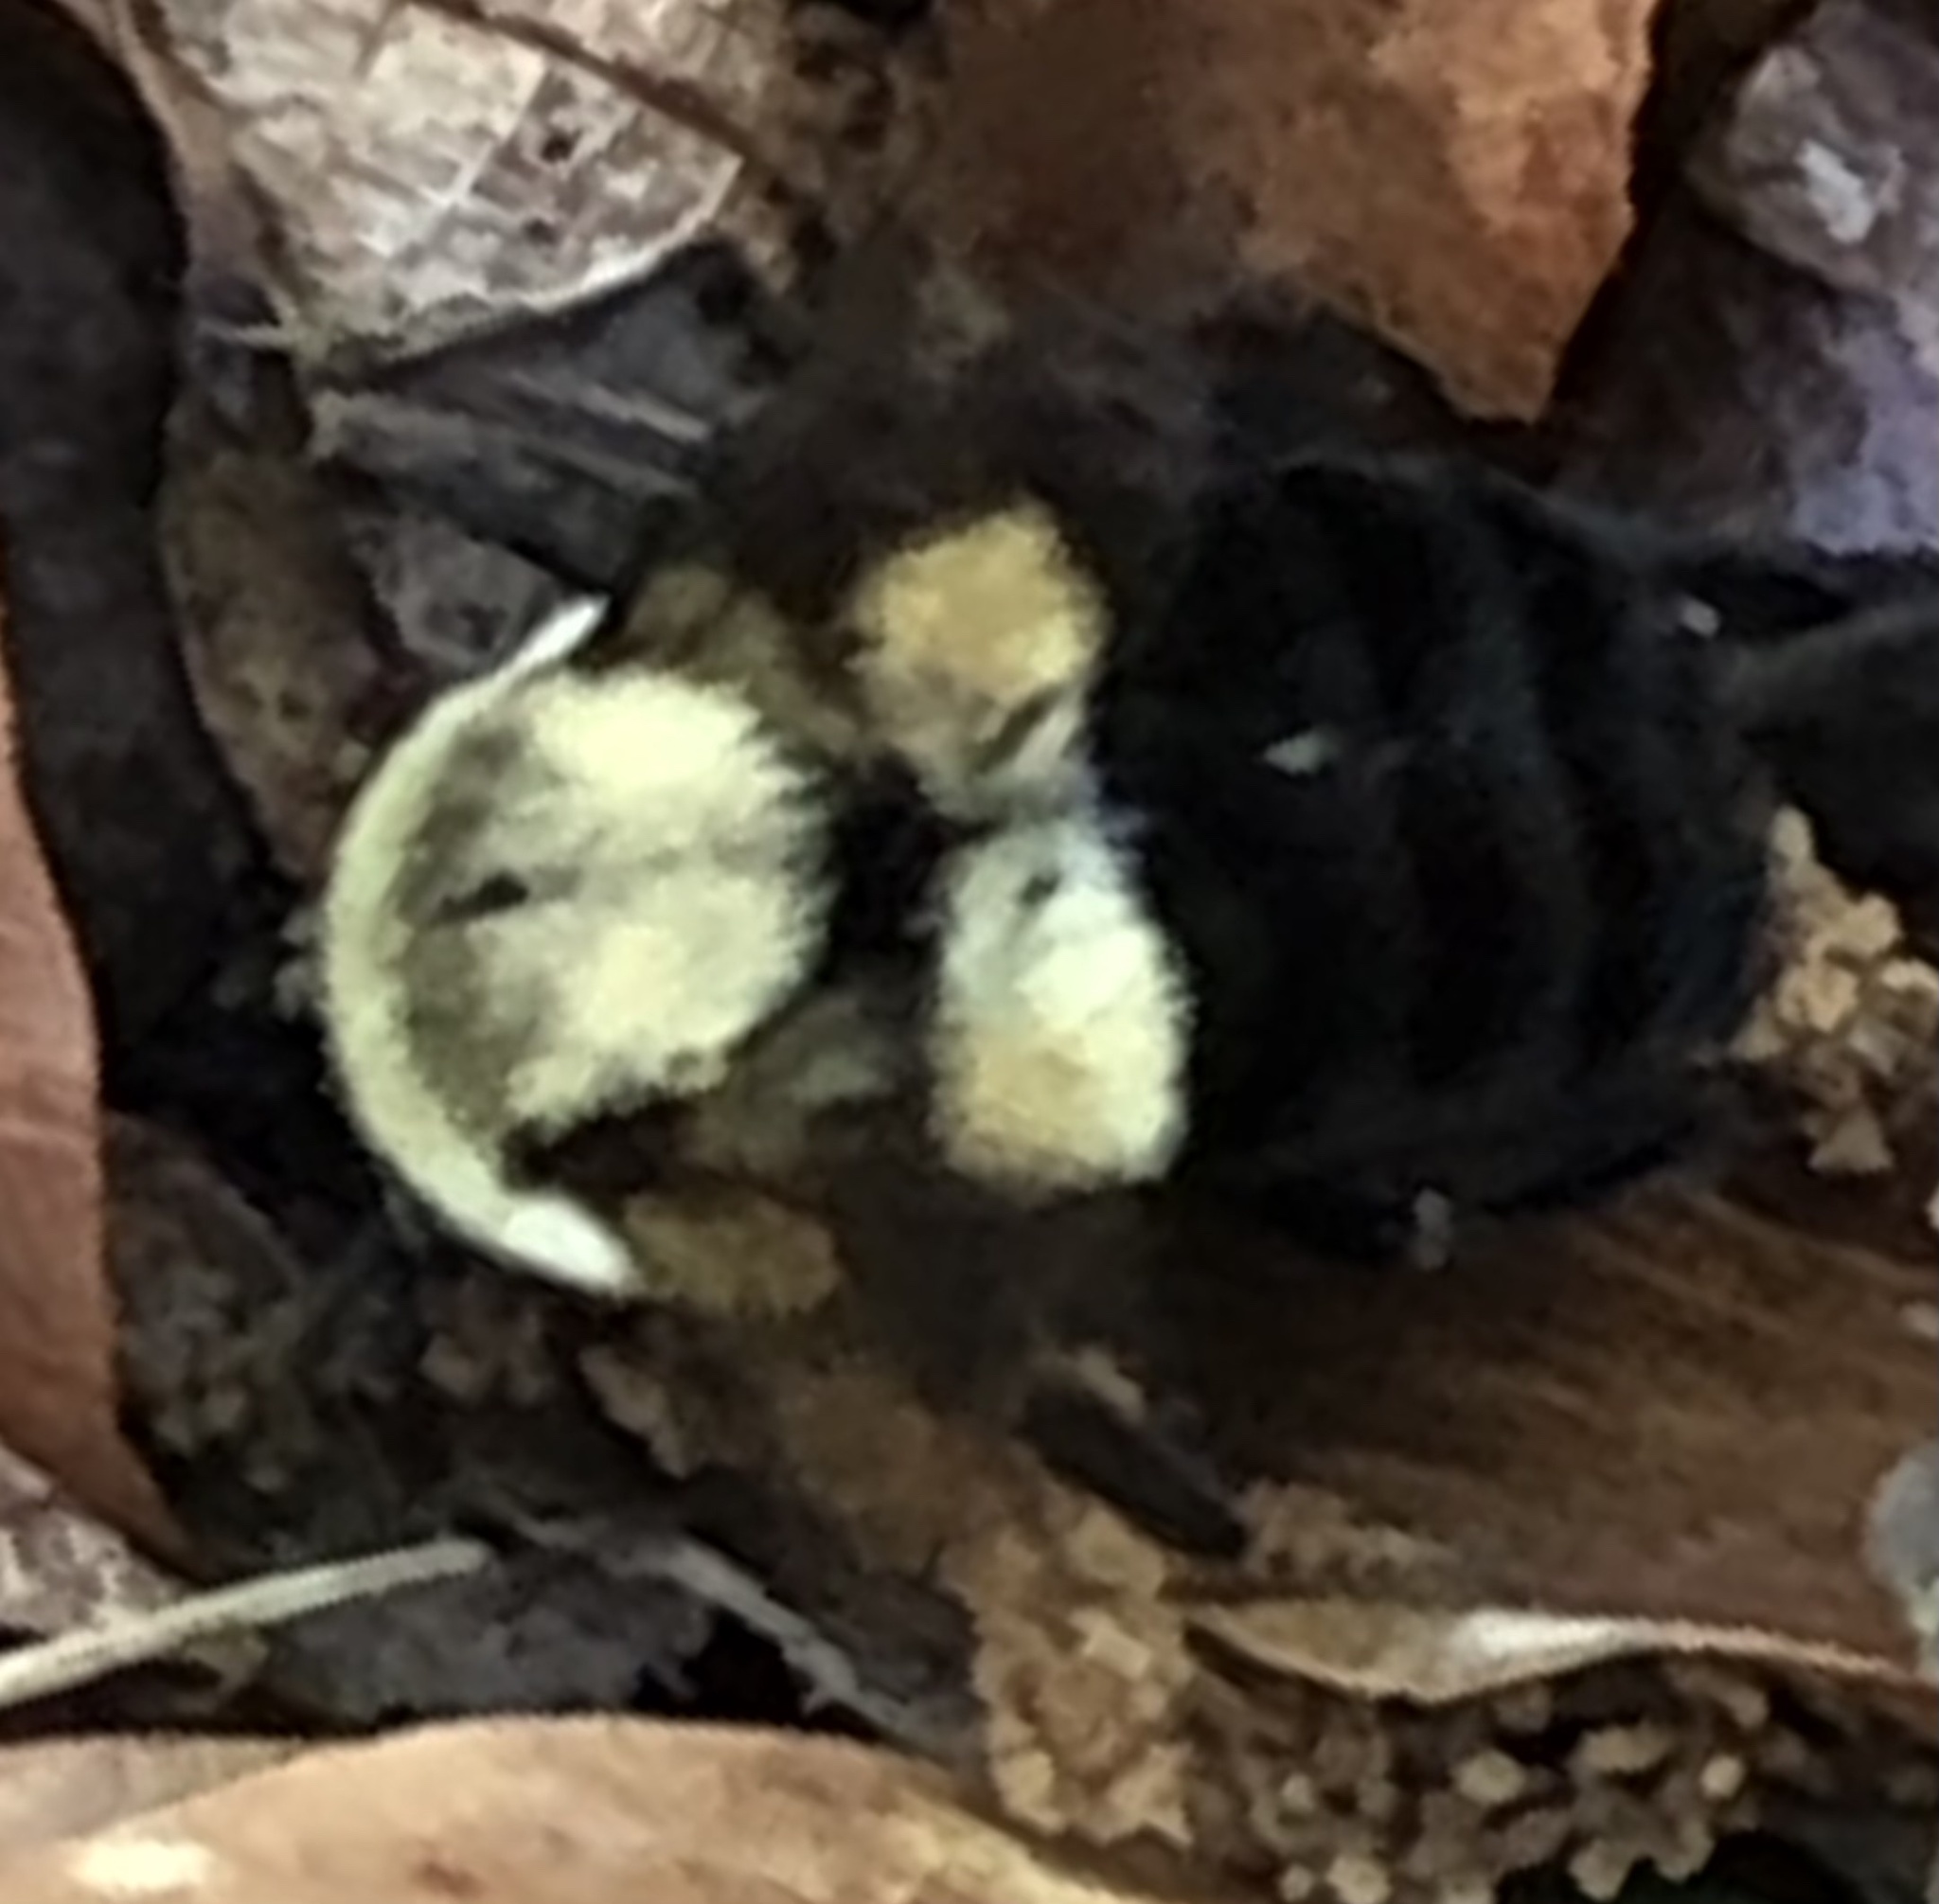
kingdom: Animalia
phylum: Arthropoda
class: Insecta
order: Hymenoptera
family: Apidae
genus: Bombus
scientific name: Bombus impatiens
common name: Common eastern bumble bee
